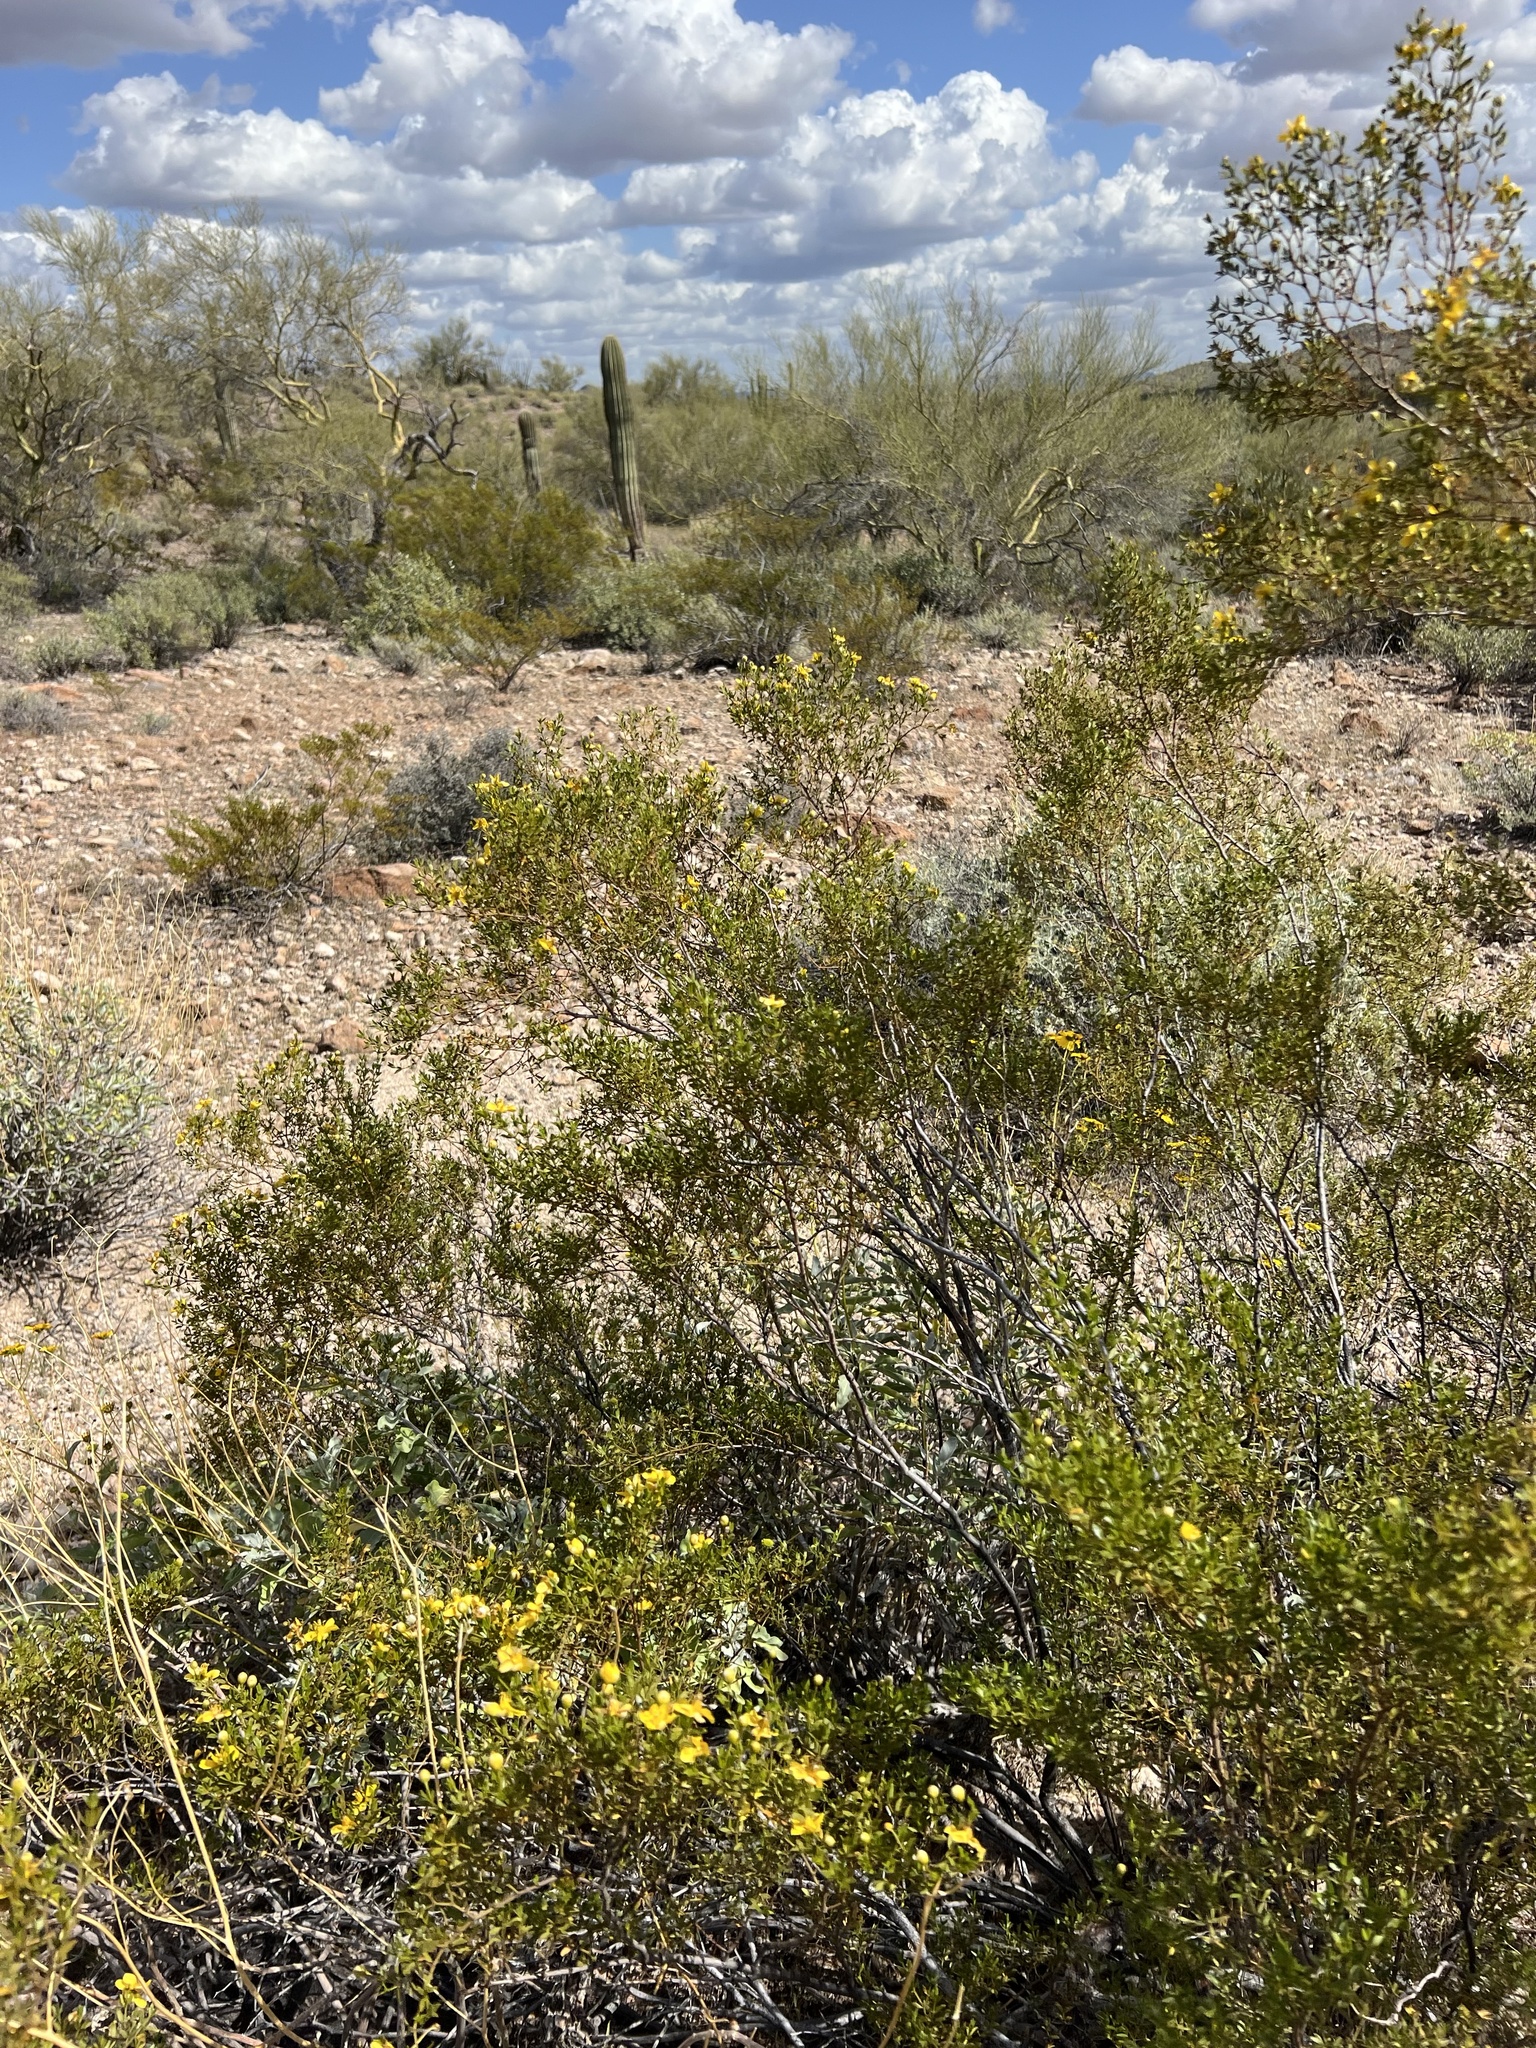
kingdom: Plantae
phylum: Tracheophyta
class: Magnoliopsida
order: Zygophyllales
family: Zygophyllaceae
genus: Larrea
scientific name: Larrea tridentata
